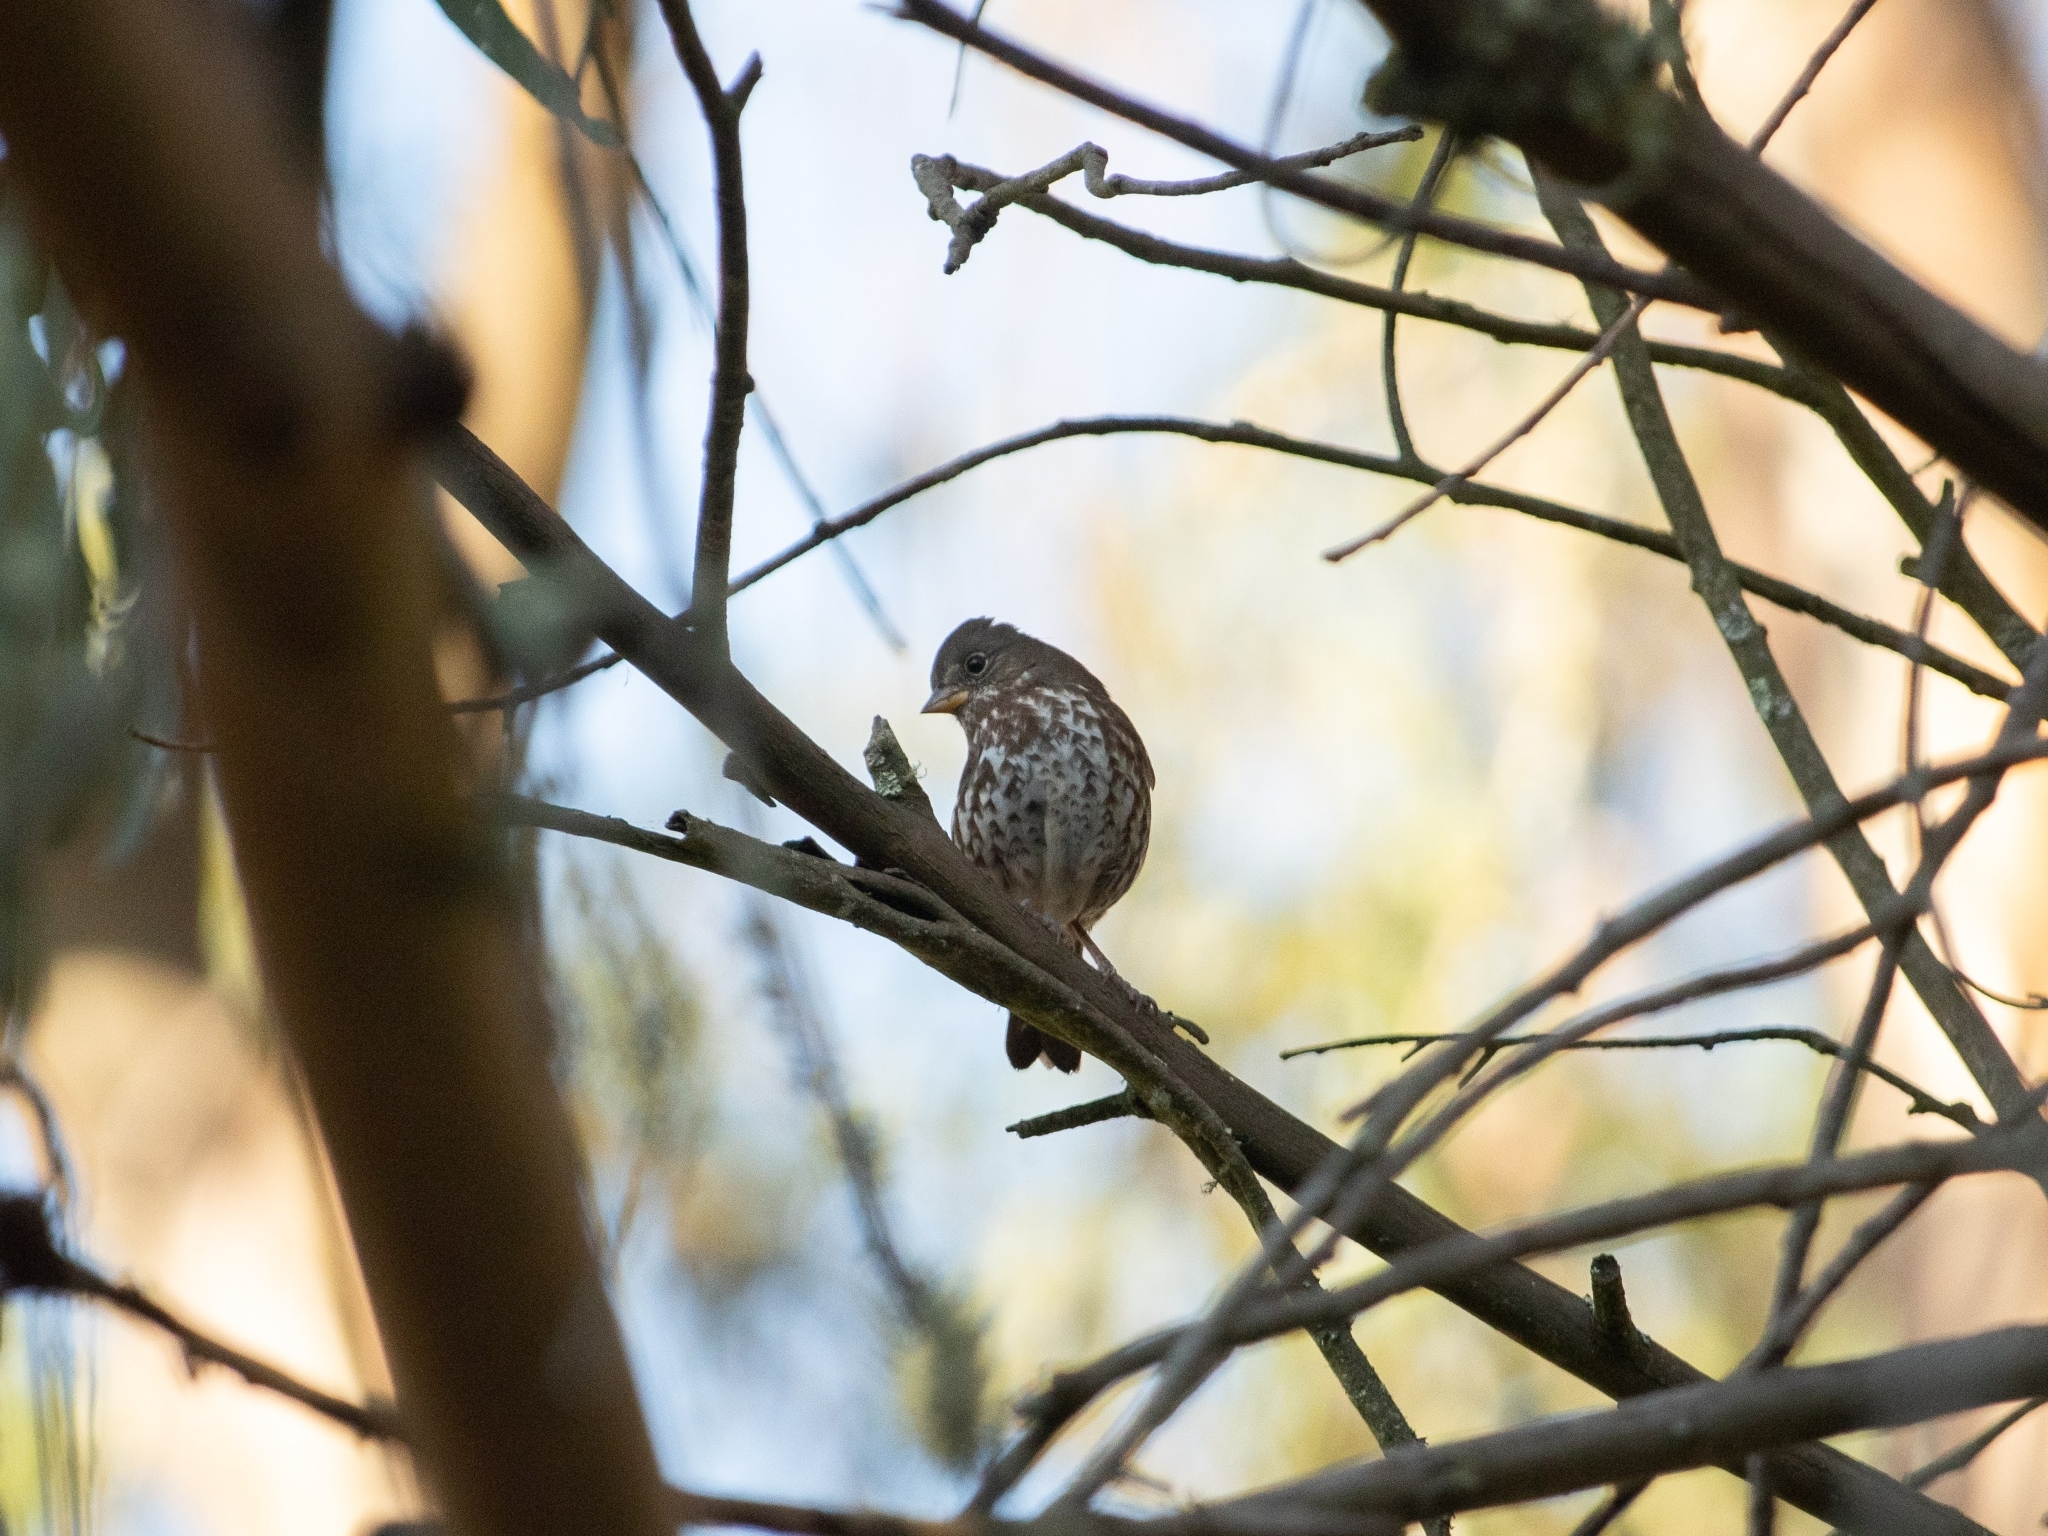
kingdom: Animalia
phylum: Chordata
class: Aves
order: Passeriformes
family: Passerellidae
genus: Passerella
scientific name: Passerella iliaca
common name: Fox sparrow
